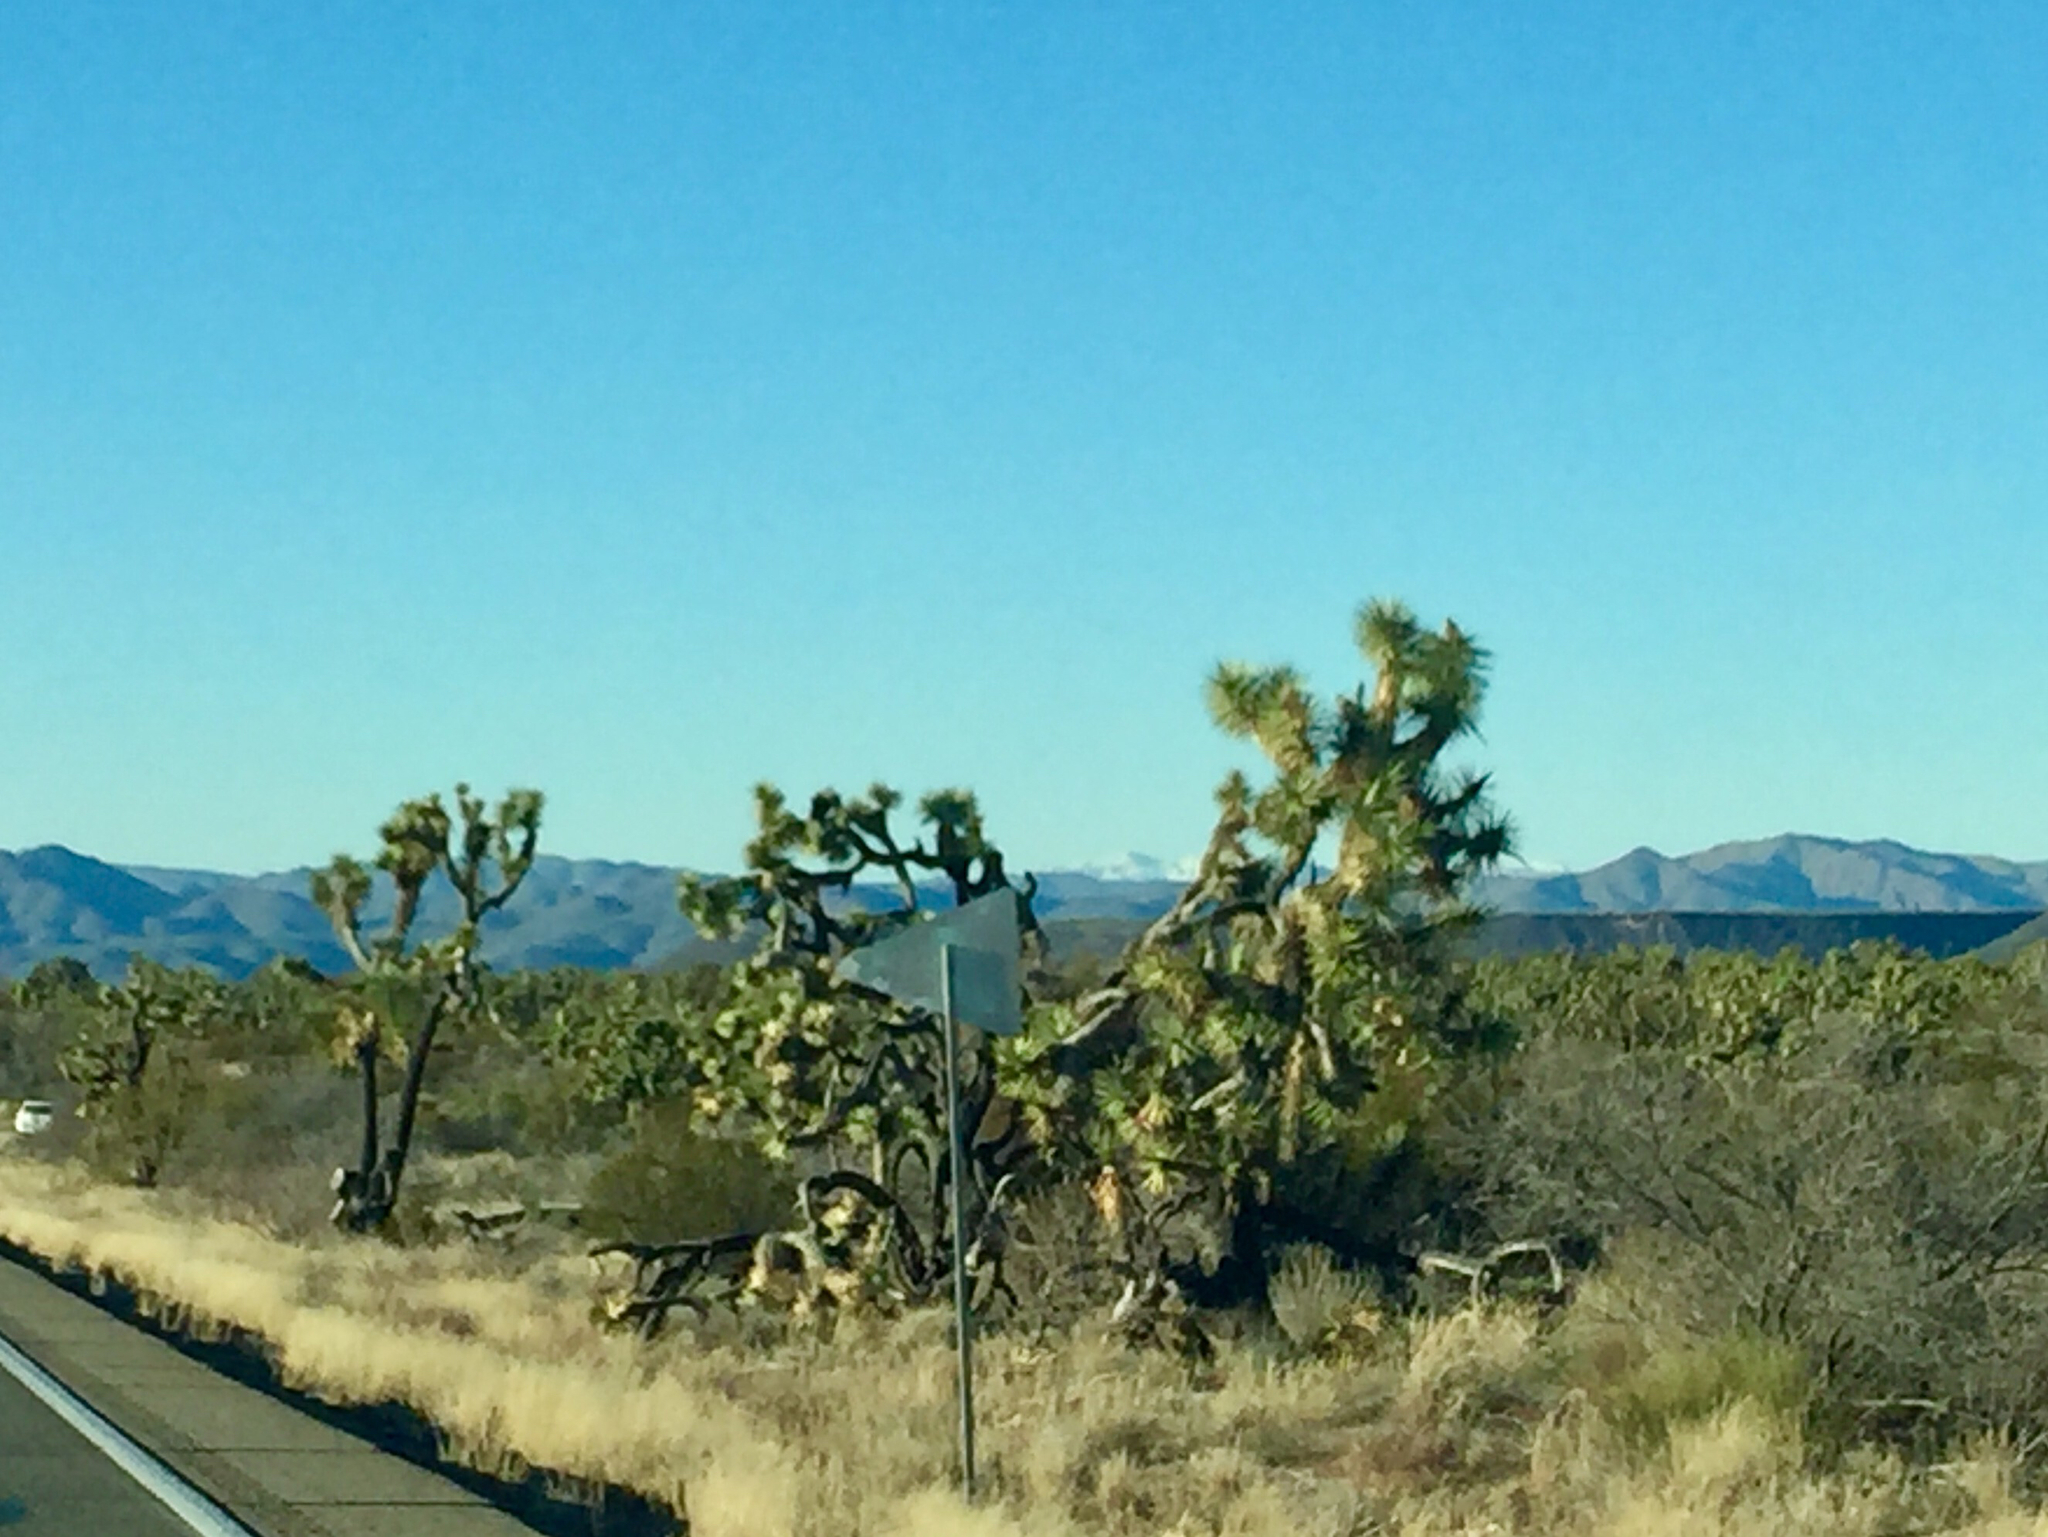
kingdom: Plantae
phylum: Tracheophyta
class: Liliopsida
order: Asparagales
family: Asparagaceae
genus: Yucca
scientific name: Yucca brevifolia
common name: Joshua tree
